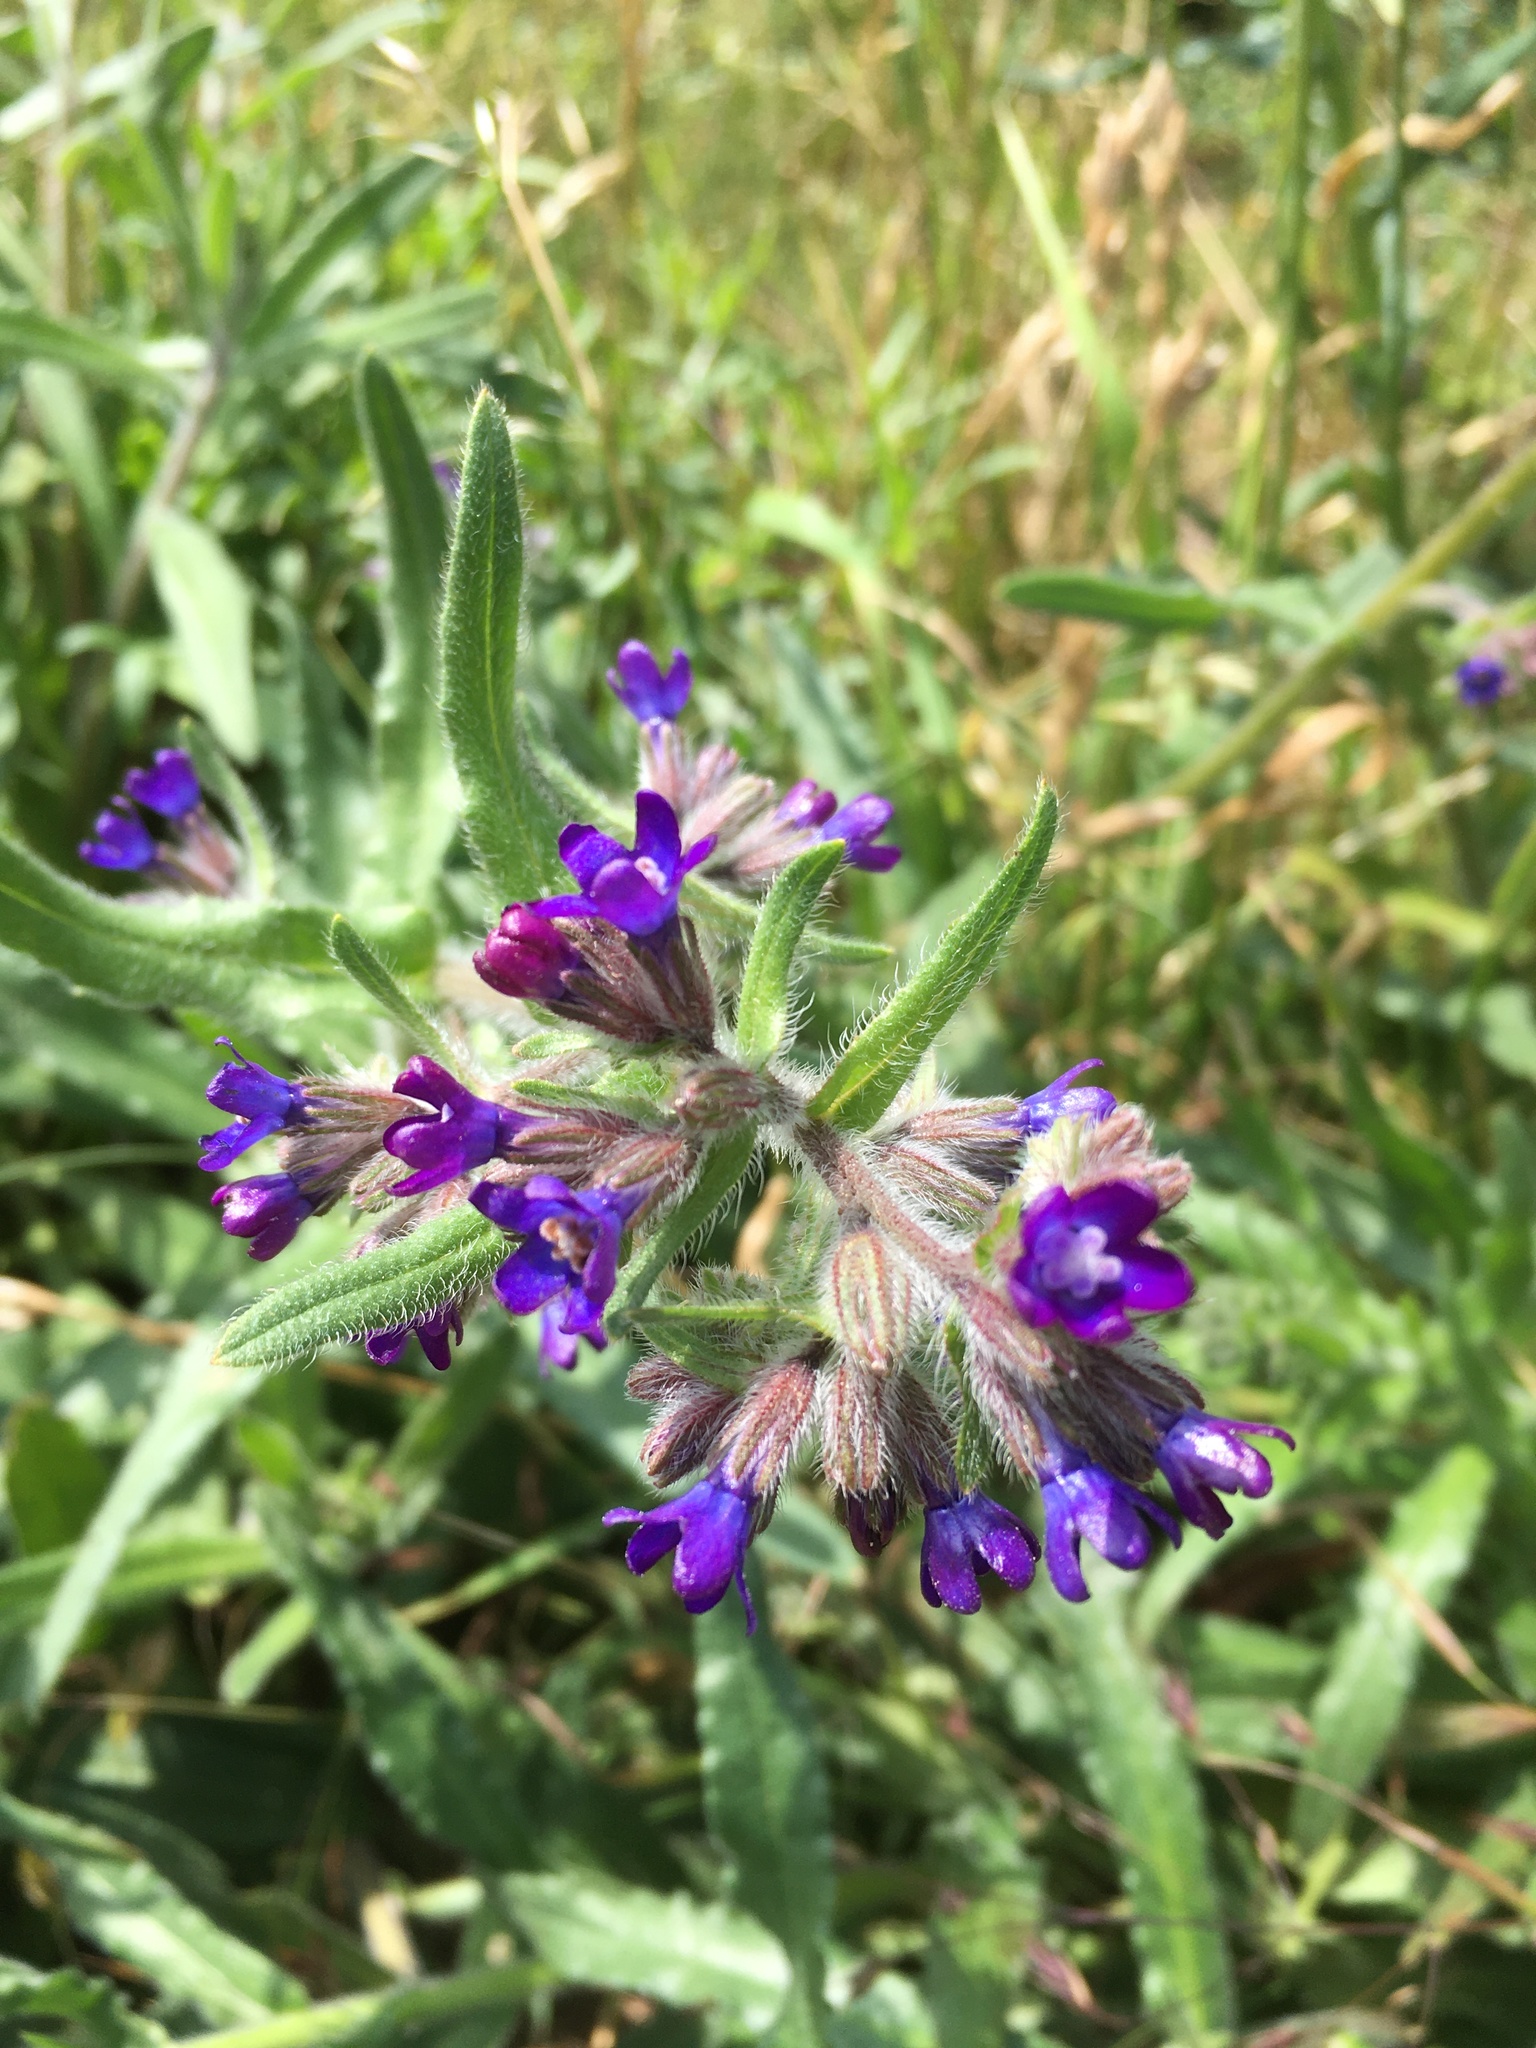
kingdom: Plantae
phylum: Tracheophyta
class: Magnoliopsida
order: Boraginales
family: Boraginaceae
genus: Anchusa
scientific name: Anchusa officinalis
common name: Alkanet
